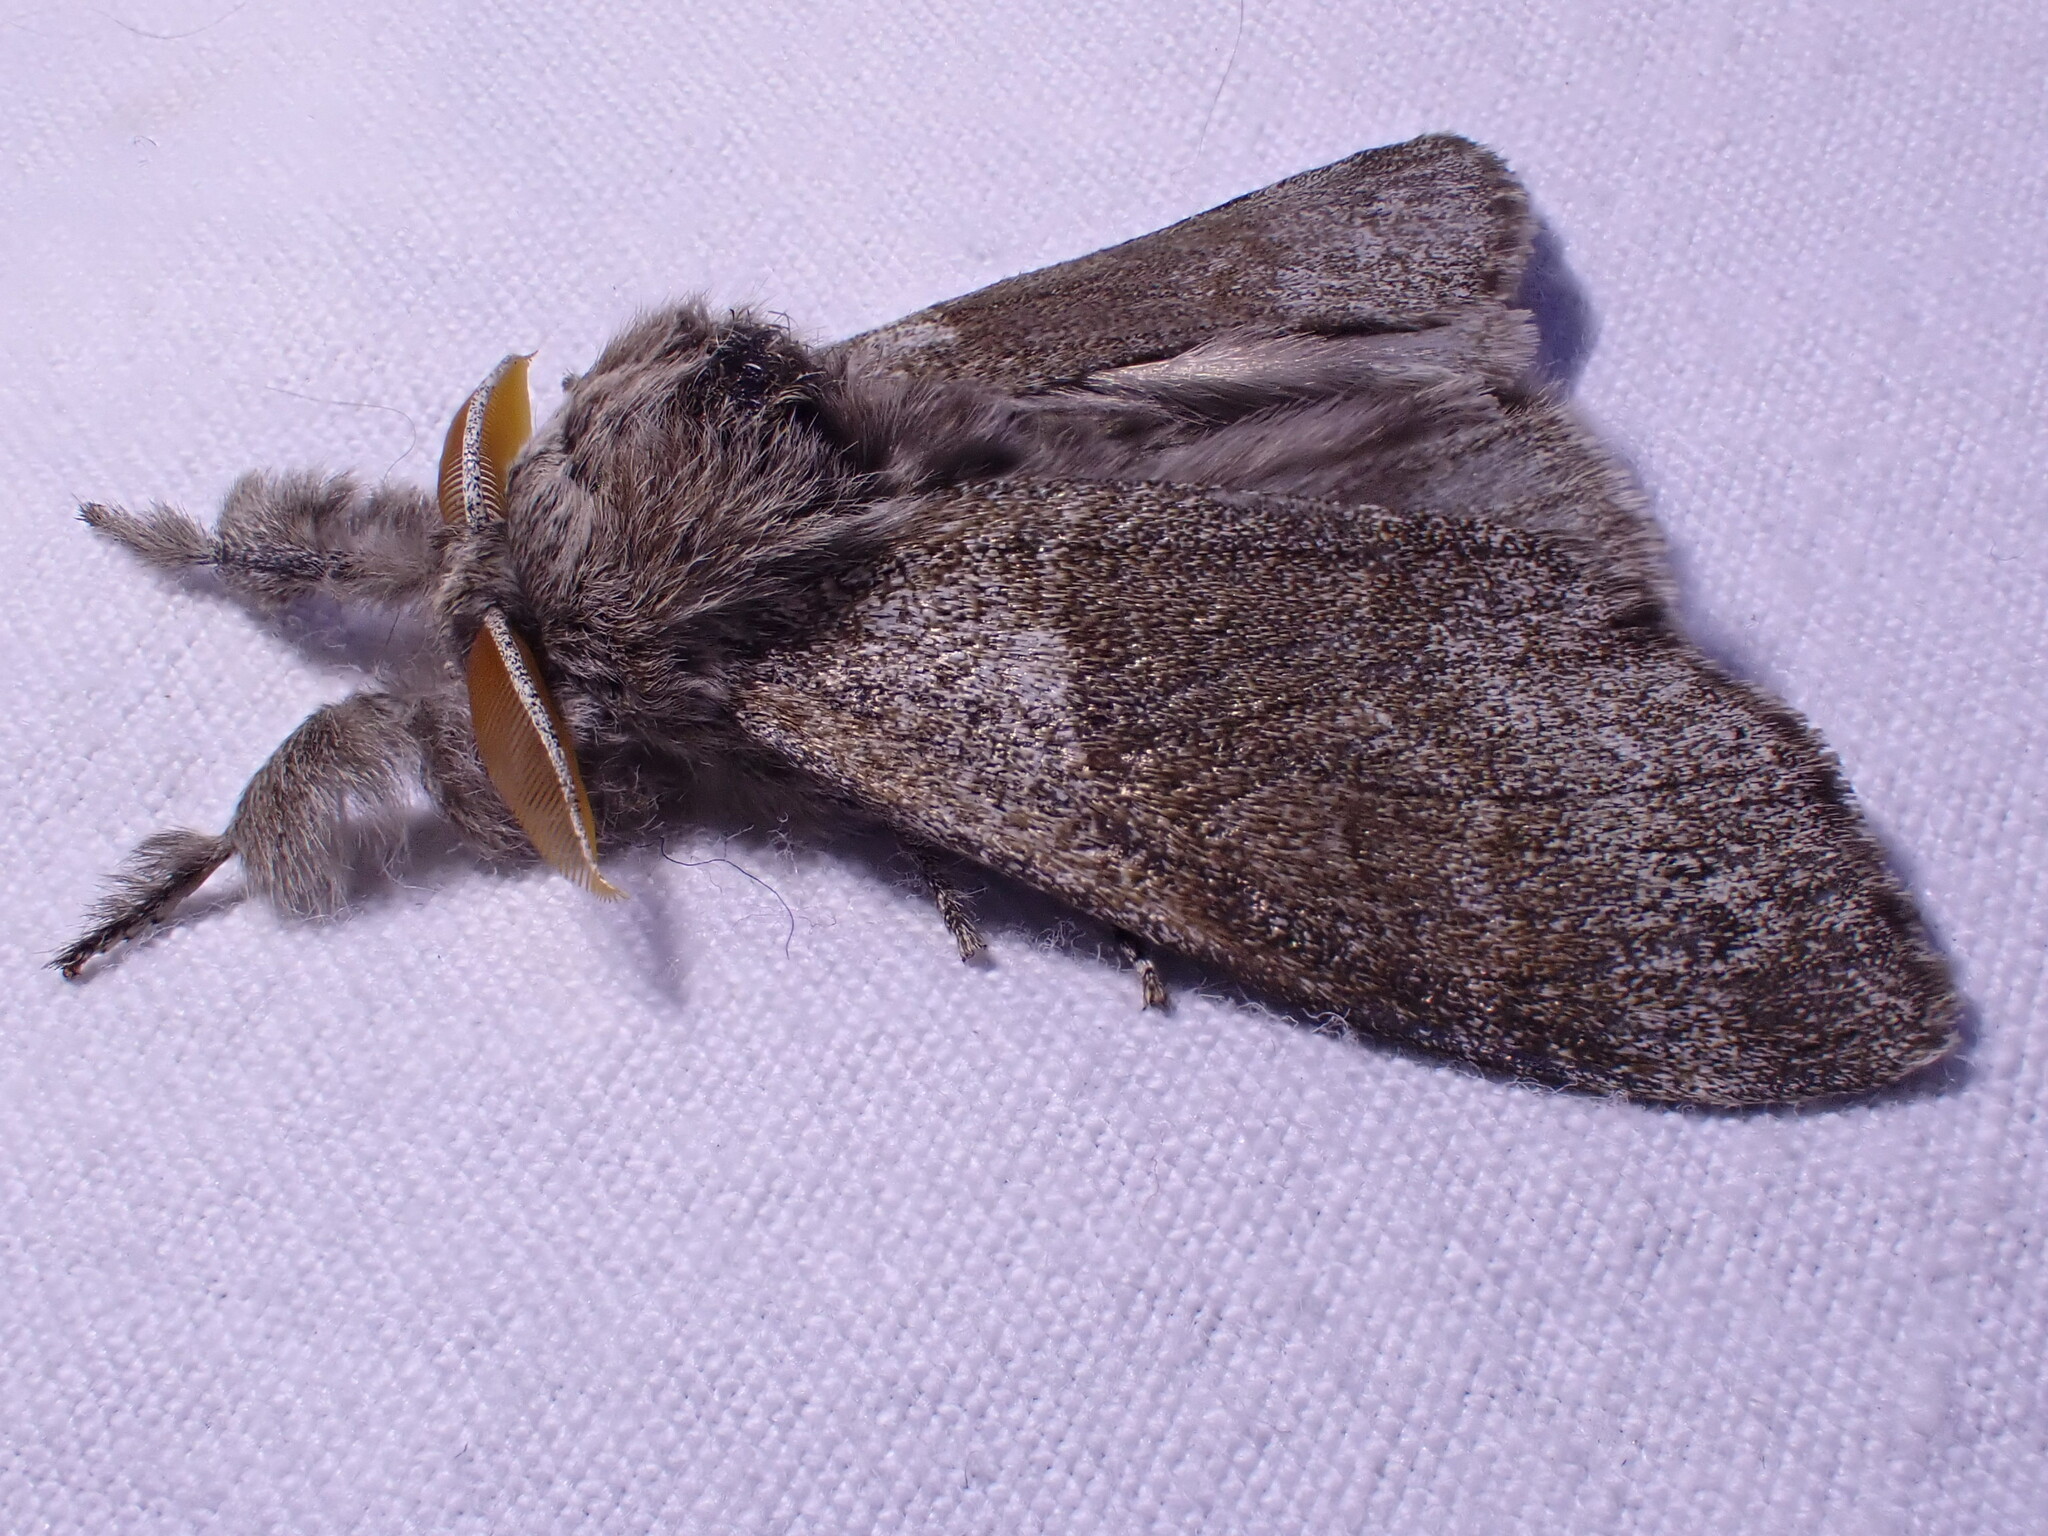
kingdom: Animalia
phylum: Arthropoda
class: Insecta
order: Lepidoptera
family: Erebidae
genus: Calliteara
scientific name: Calliteara pudibunda
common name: Pale tussock
